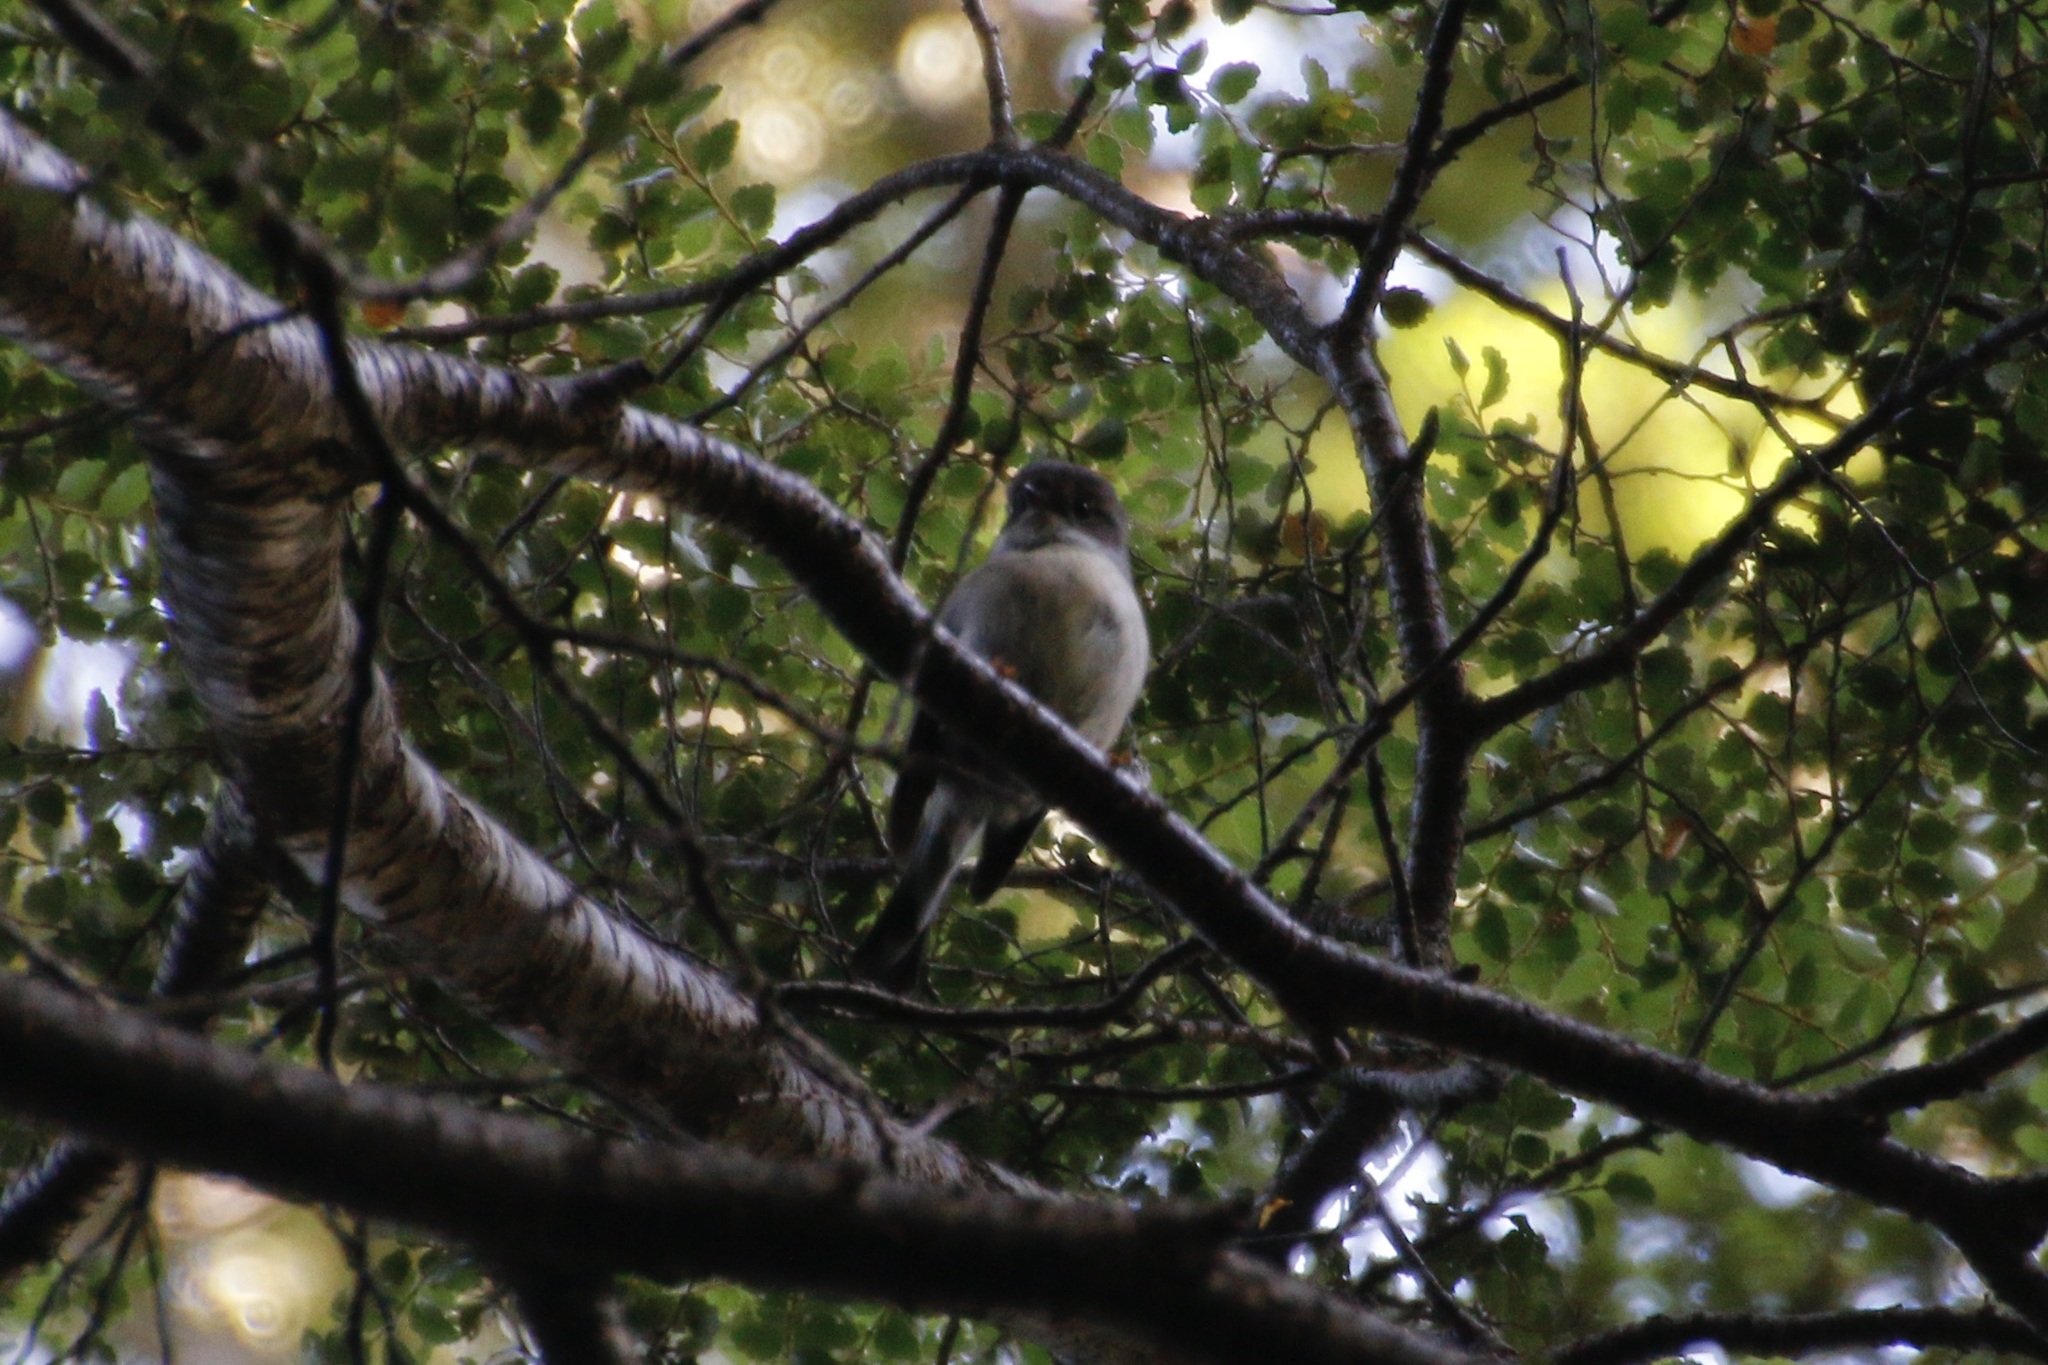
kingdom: Animalia
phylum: Chordata
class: Aves
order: Passeriformes
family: Petroicidae
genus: Petroica
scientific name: Petroica macrocephala
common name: Tomtit
